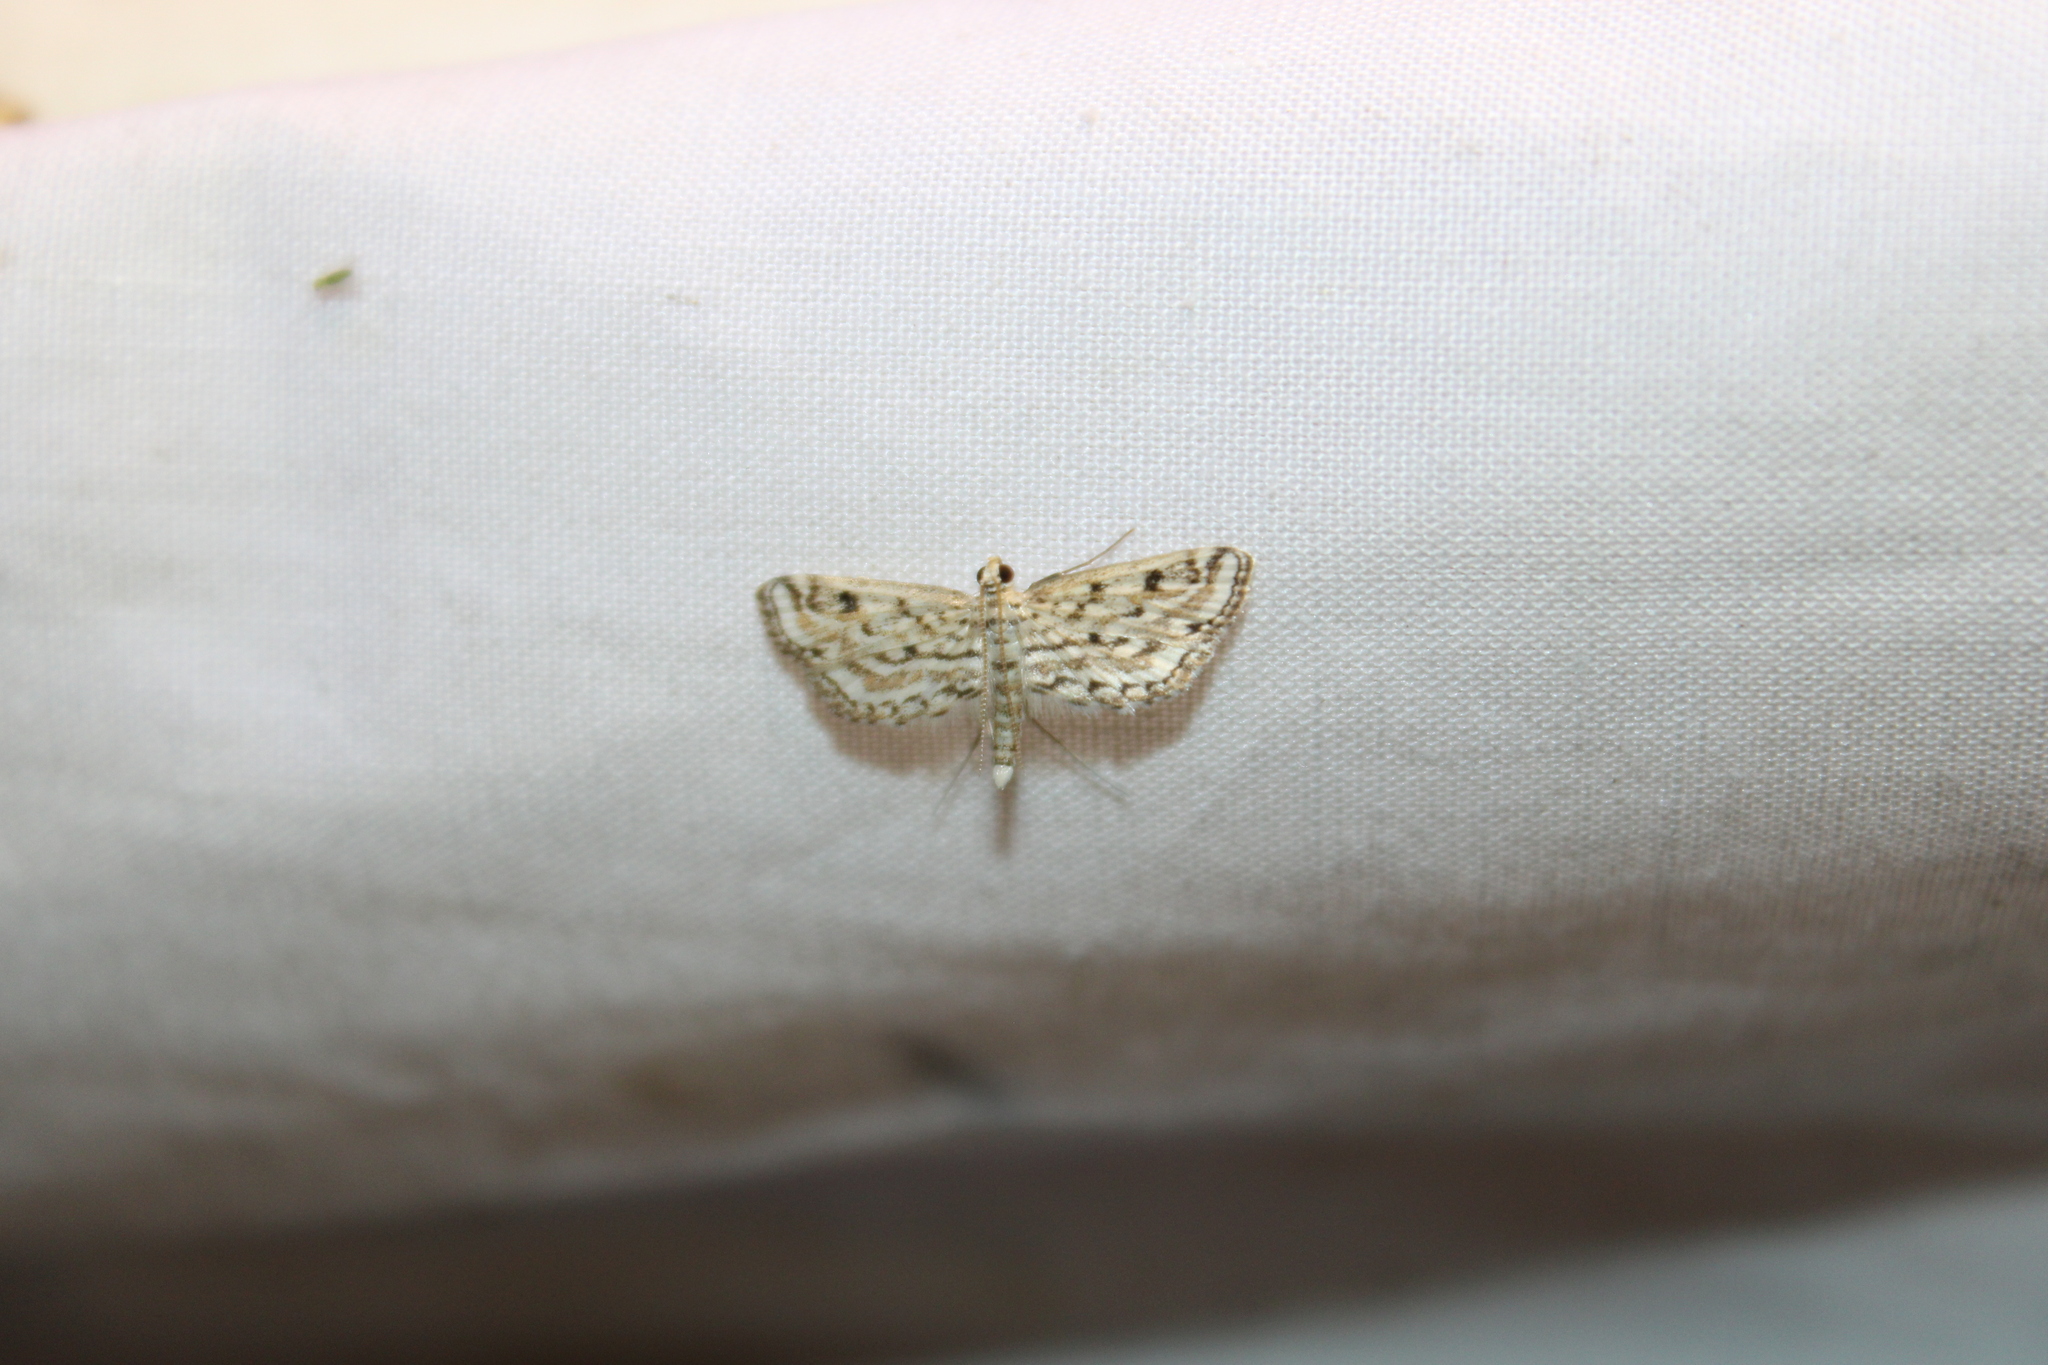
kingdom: Animalia
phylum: Arthropoda
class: Insecta
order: Lepidoptera
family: Crambidae
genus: Parapoynx
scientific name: Parapoynx allionealis
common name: Bladderwort casemaker
